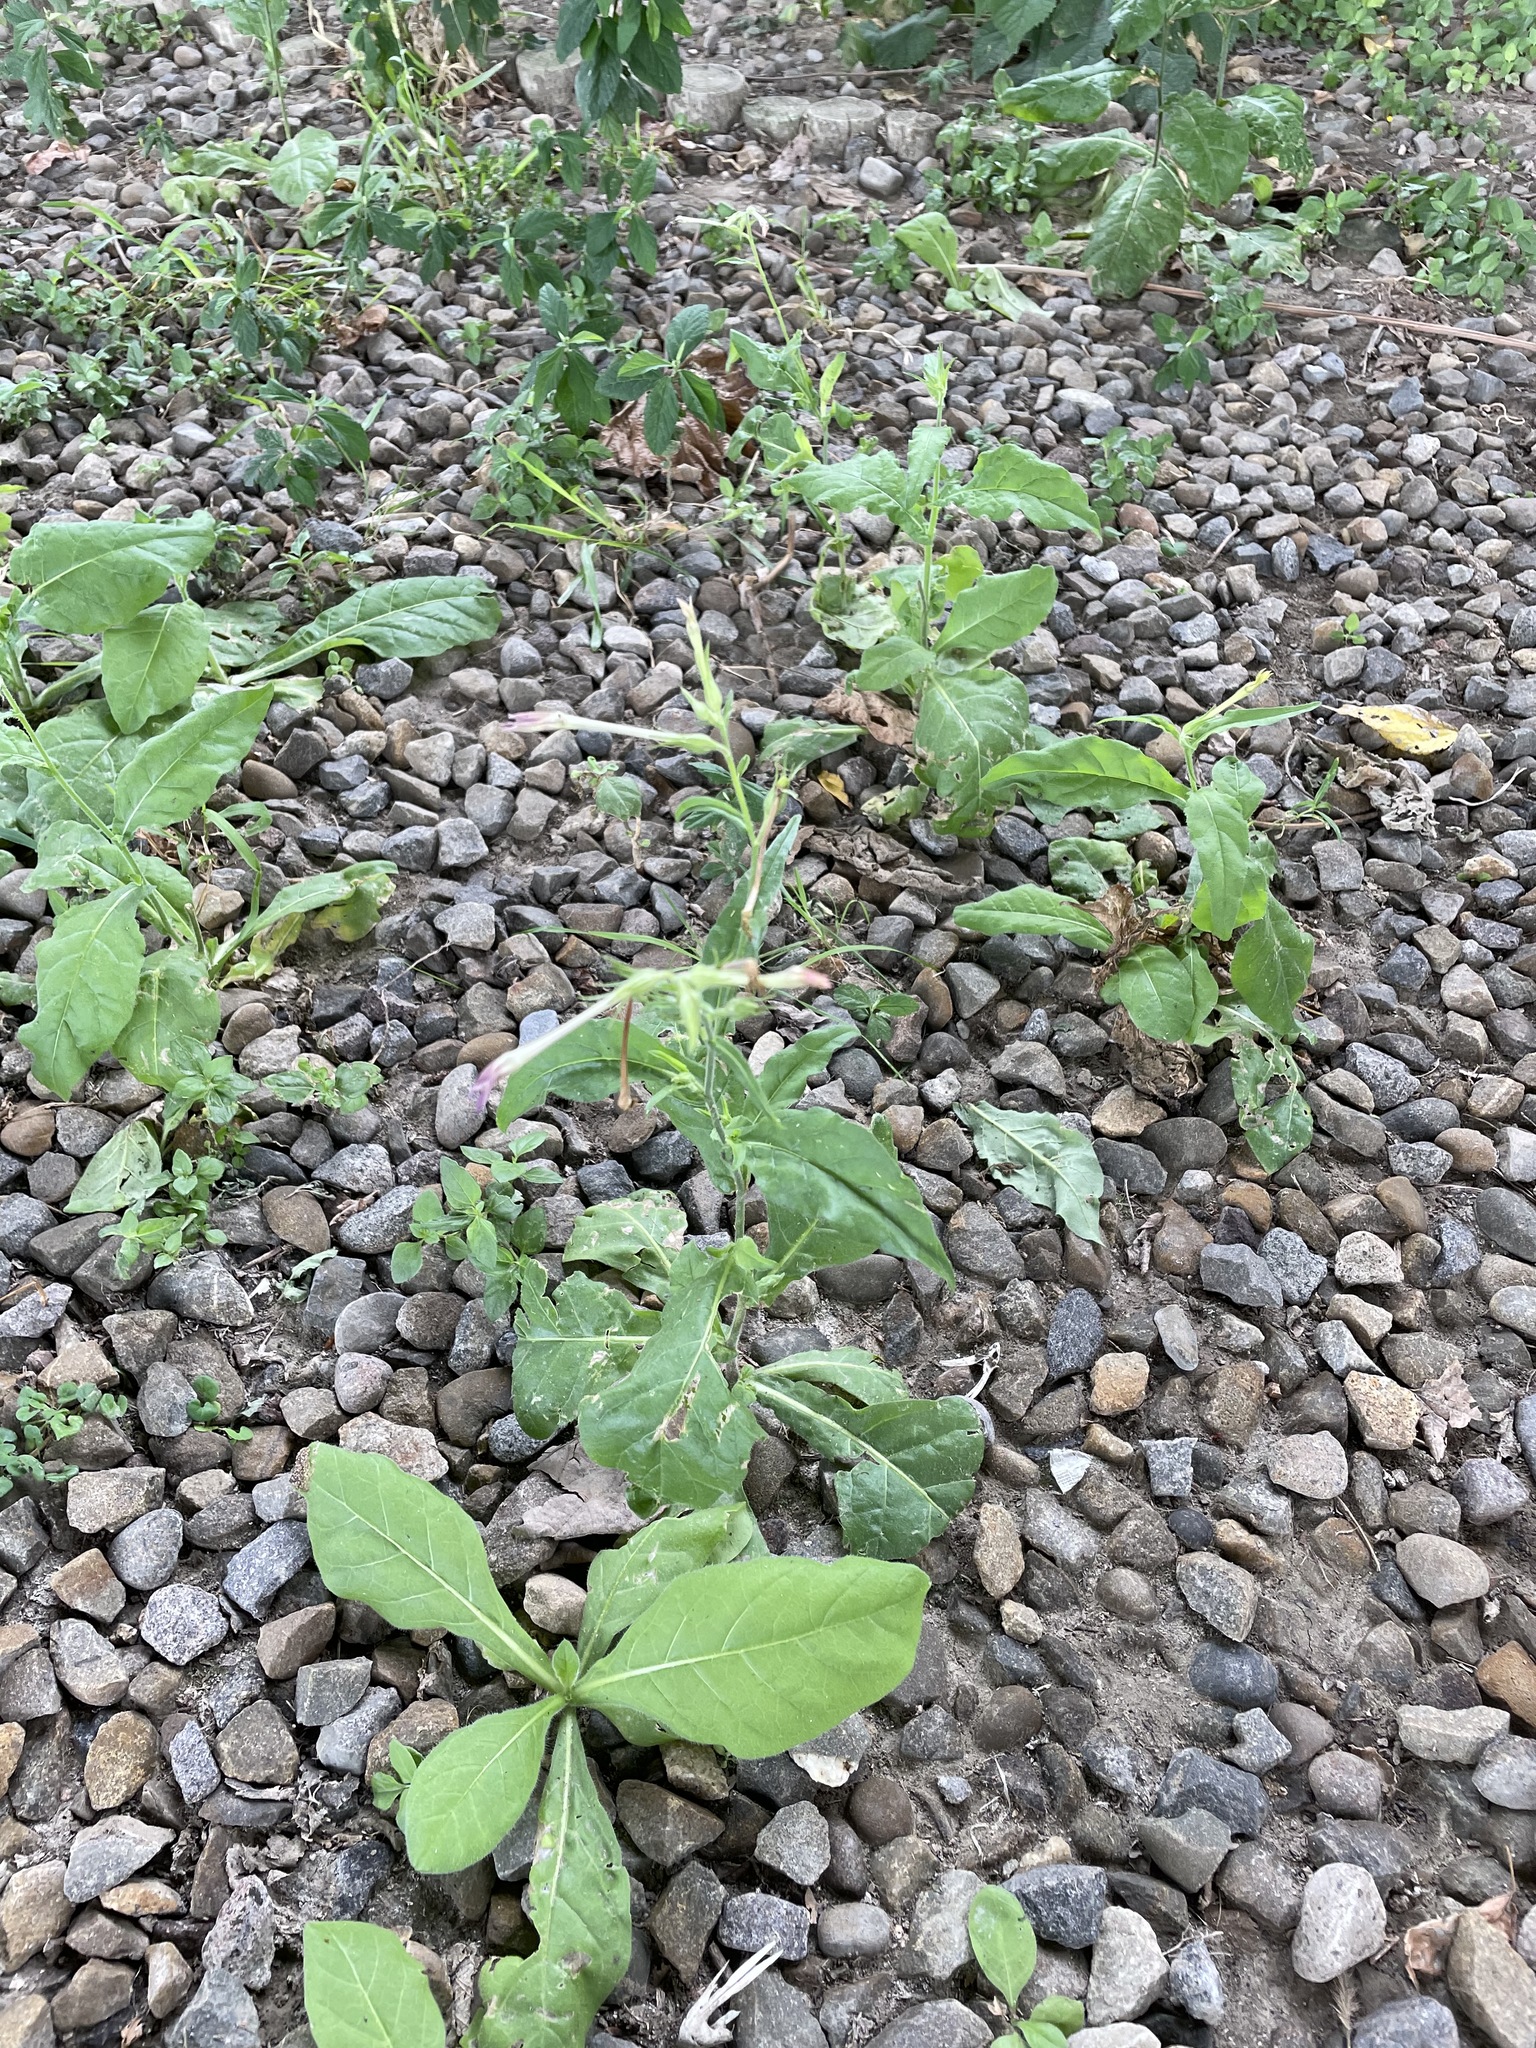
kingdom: Plantae
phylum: Tracheophyta
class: Magnoliopsida
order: Solanales
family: Solanaceae
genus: Nicotiana
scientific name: Nicotiana plumbaginifolia
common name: Tex-mex tobacco
